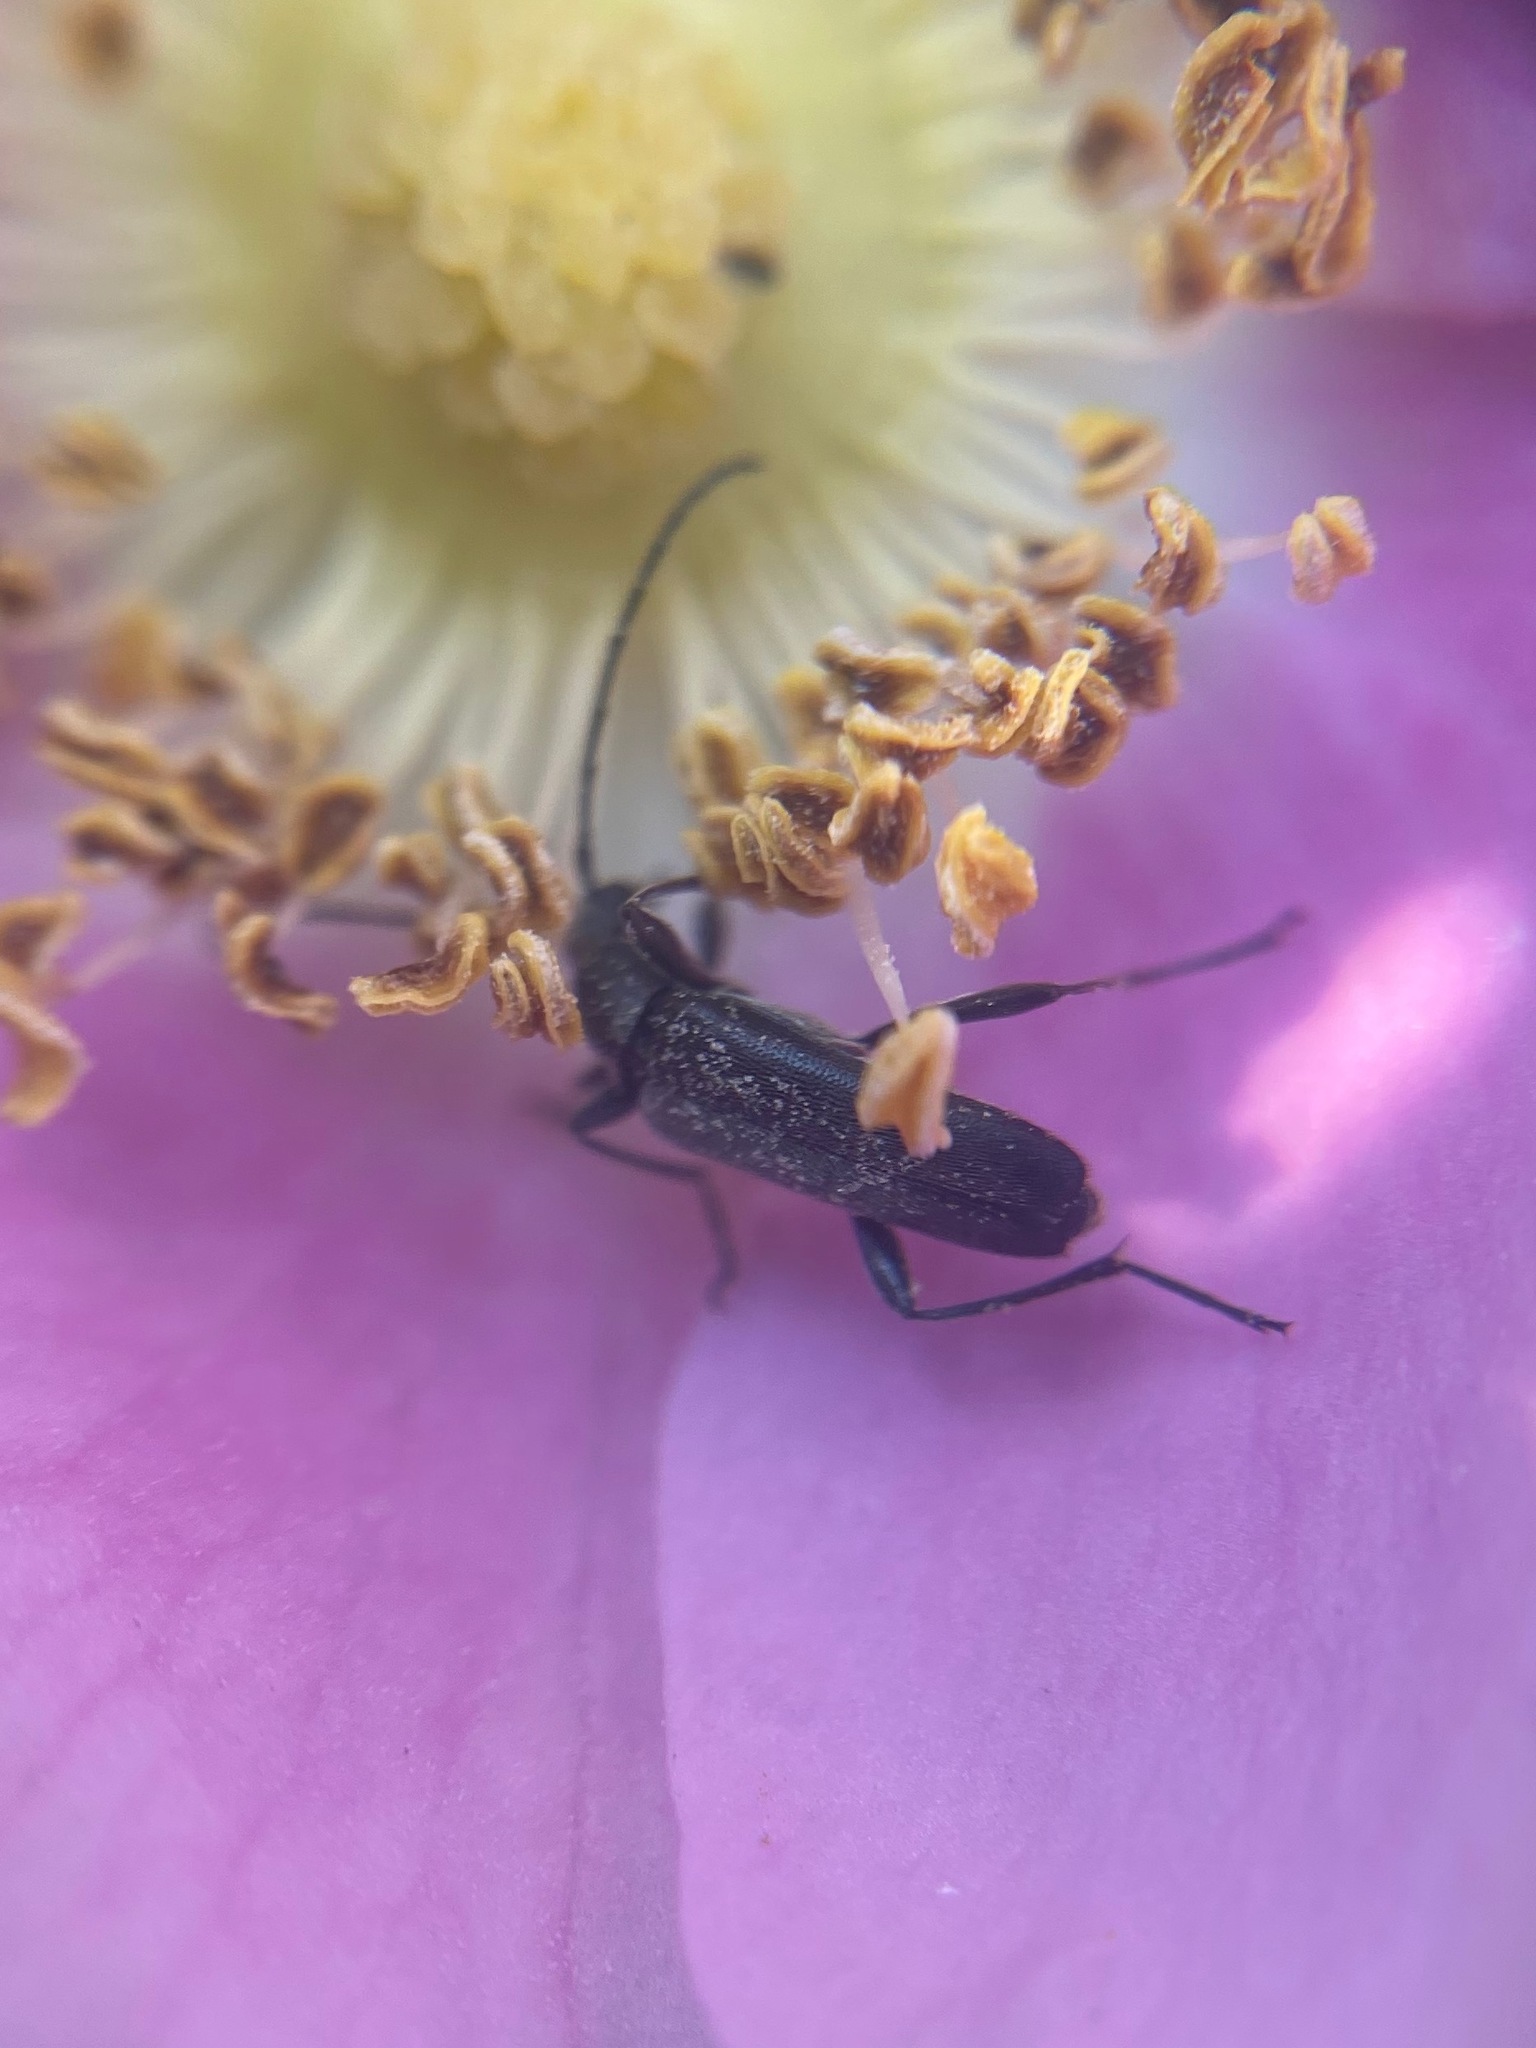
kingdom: Animalia
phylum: Arthropoda
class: Insecta
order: Coleoptera
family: Cerambycidae
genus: Grammoptera
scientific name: Grammoptera subargentata
